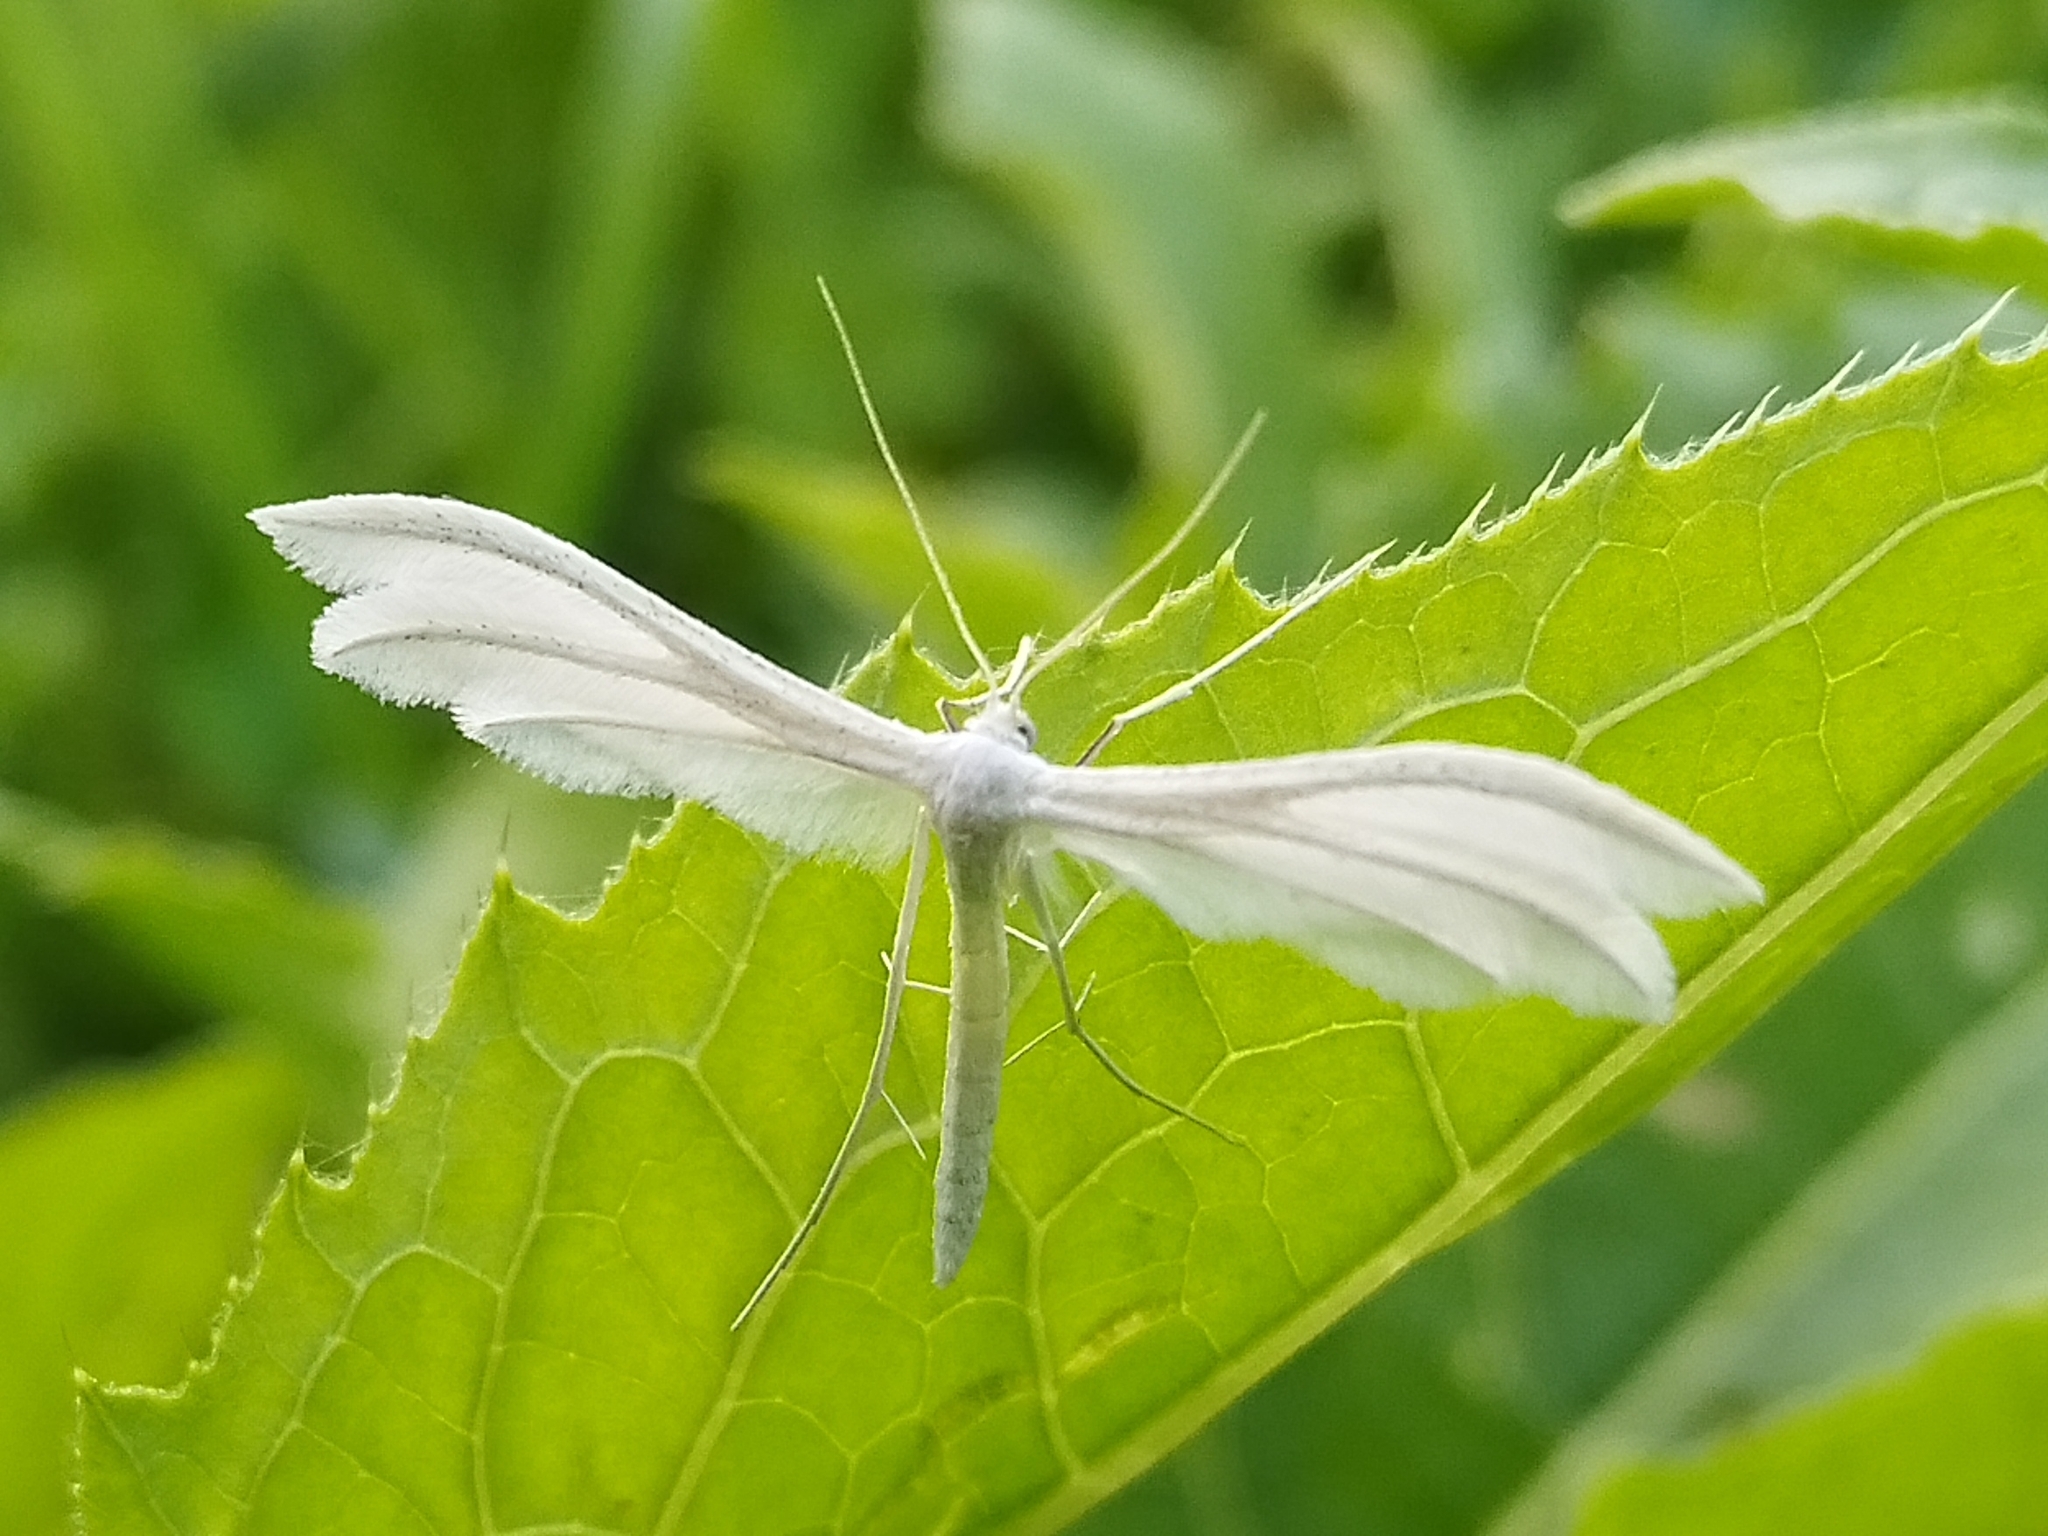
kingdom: Animalia
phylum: Arthropoda
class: Insecta
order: Lepidoptera
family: Pterophoridae
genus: Pterophorus
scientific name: Pterophorus pentadactyla
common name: White plume moth
